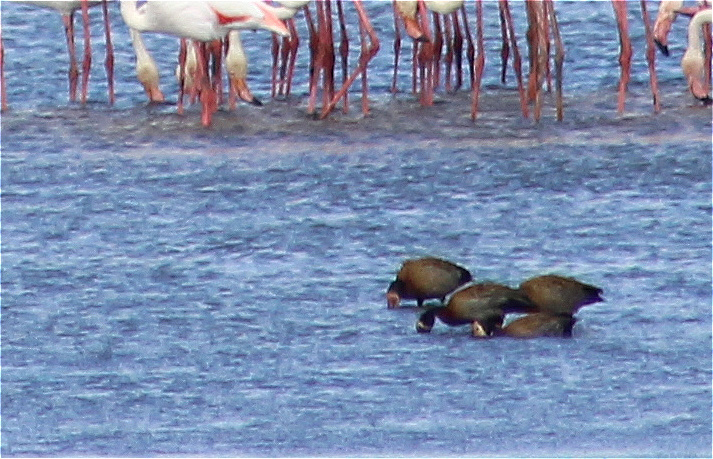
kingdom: Animalia
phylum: Chordata
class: Aves
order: Anseriformes
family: Anatidae
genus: Dendrocygna
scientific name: Dendrocygna viduata
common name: White-faced whistling duck
